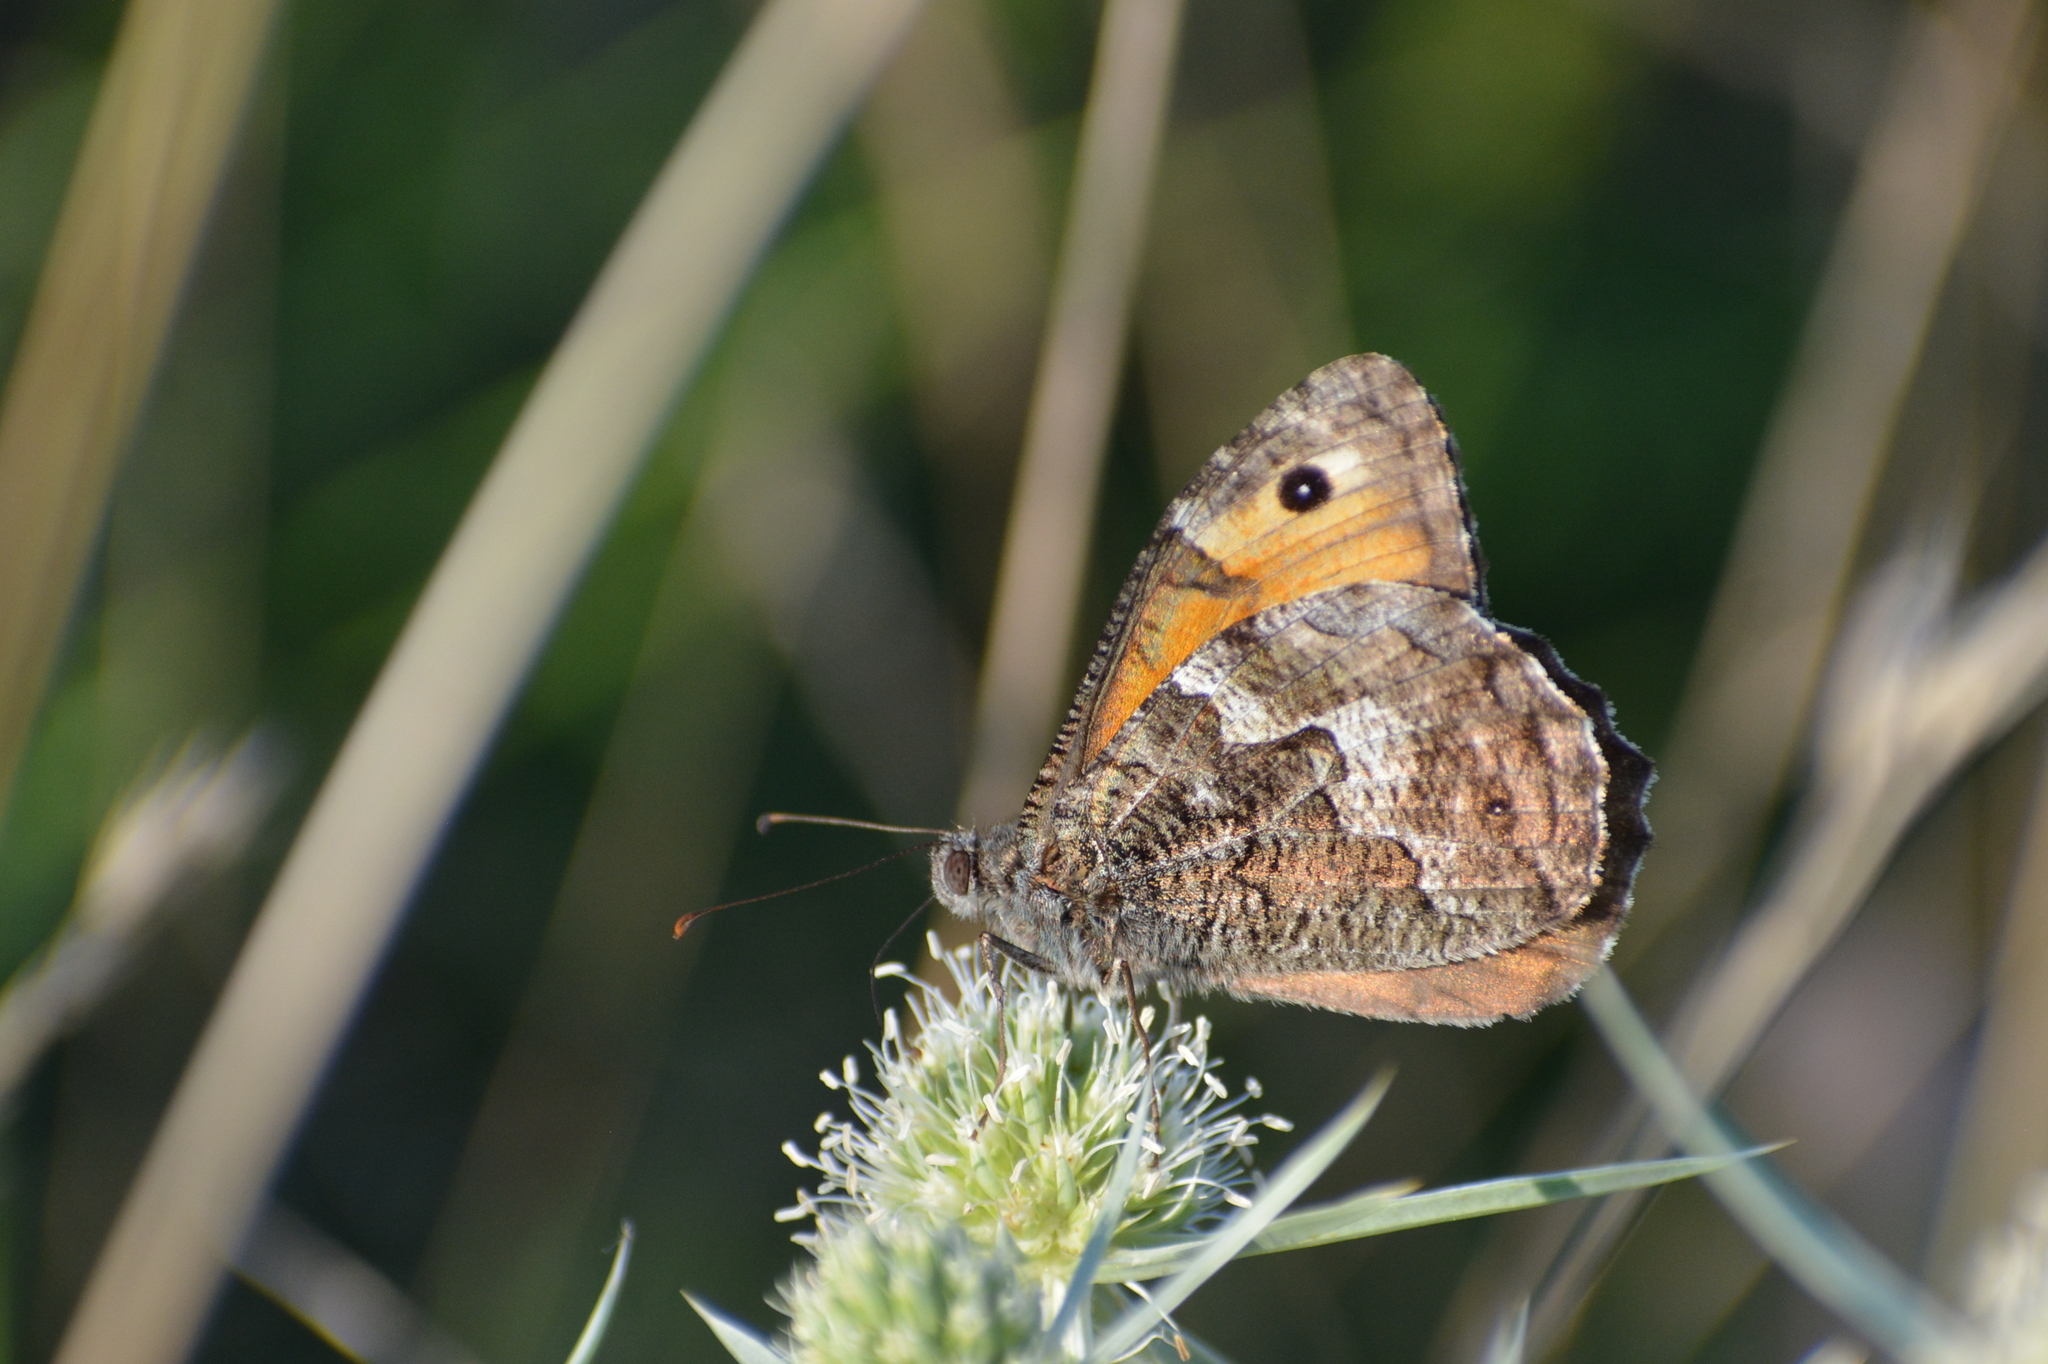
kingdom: Animalia
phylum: Arthropoda
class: Insecta
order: Lepidoptera
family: Nymphalidae
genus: Hipparchia
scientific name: Hipparchia semele
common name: Grayling
